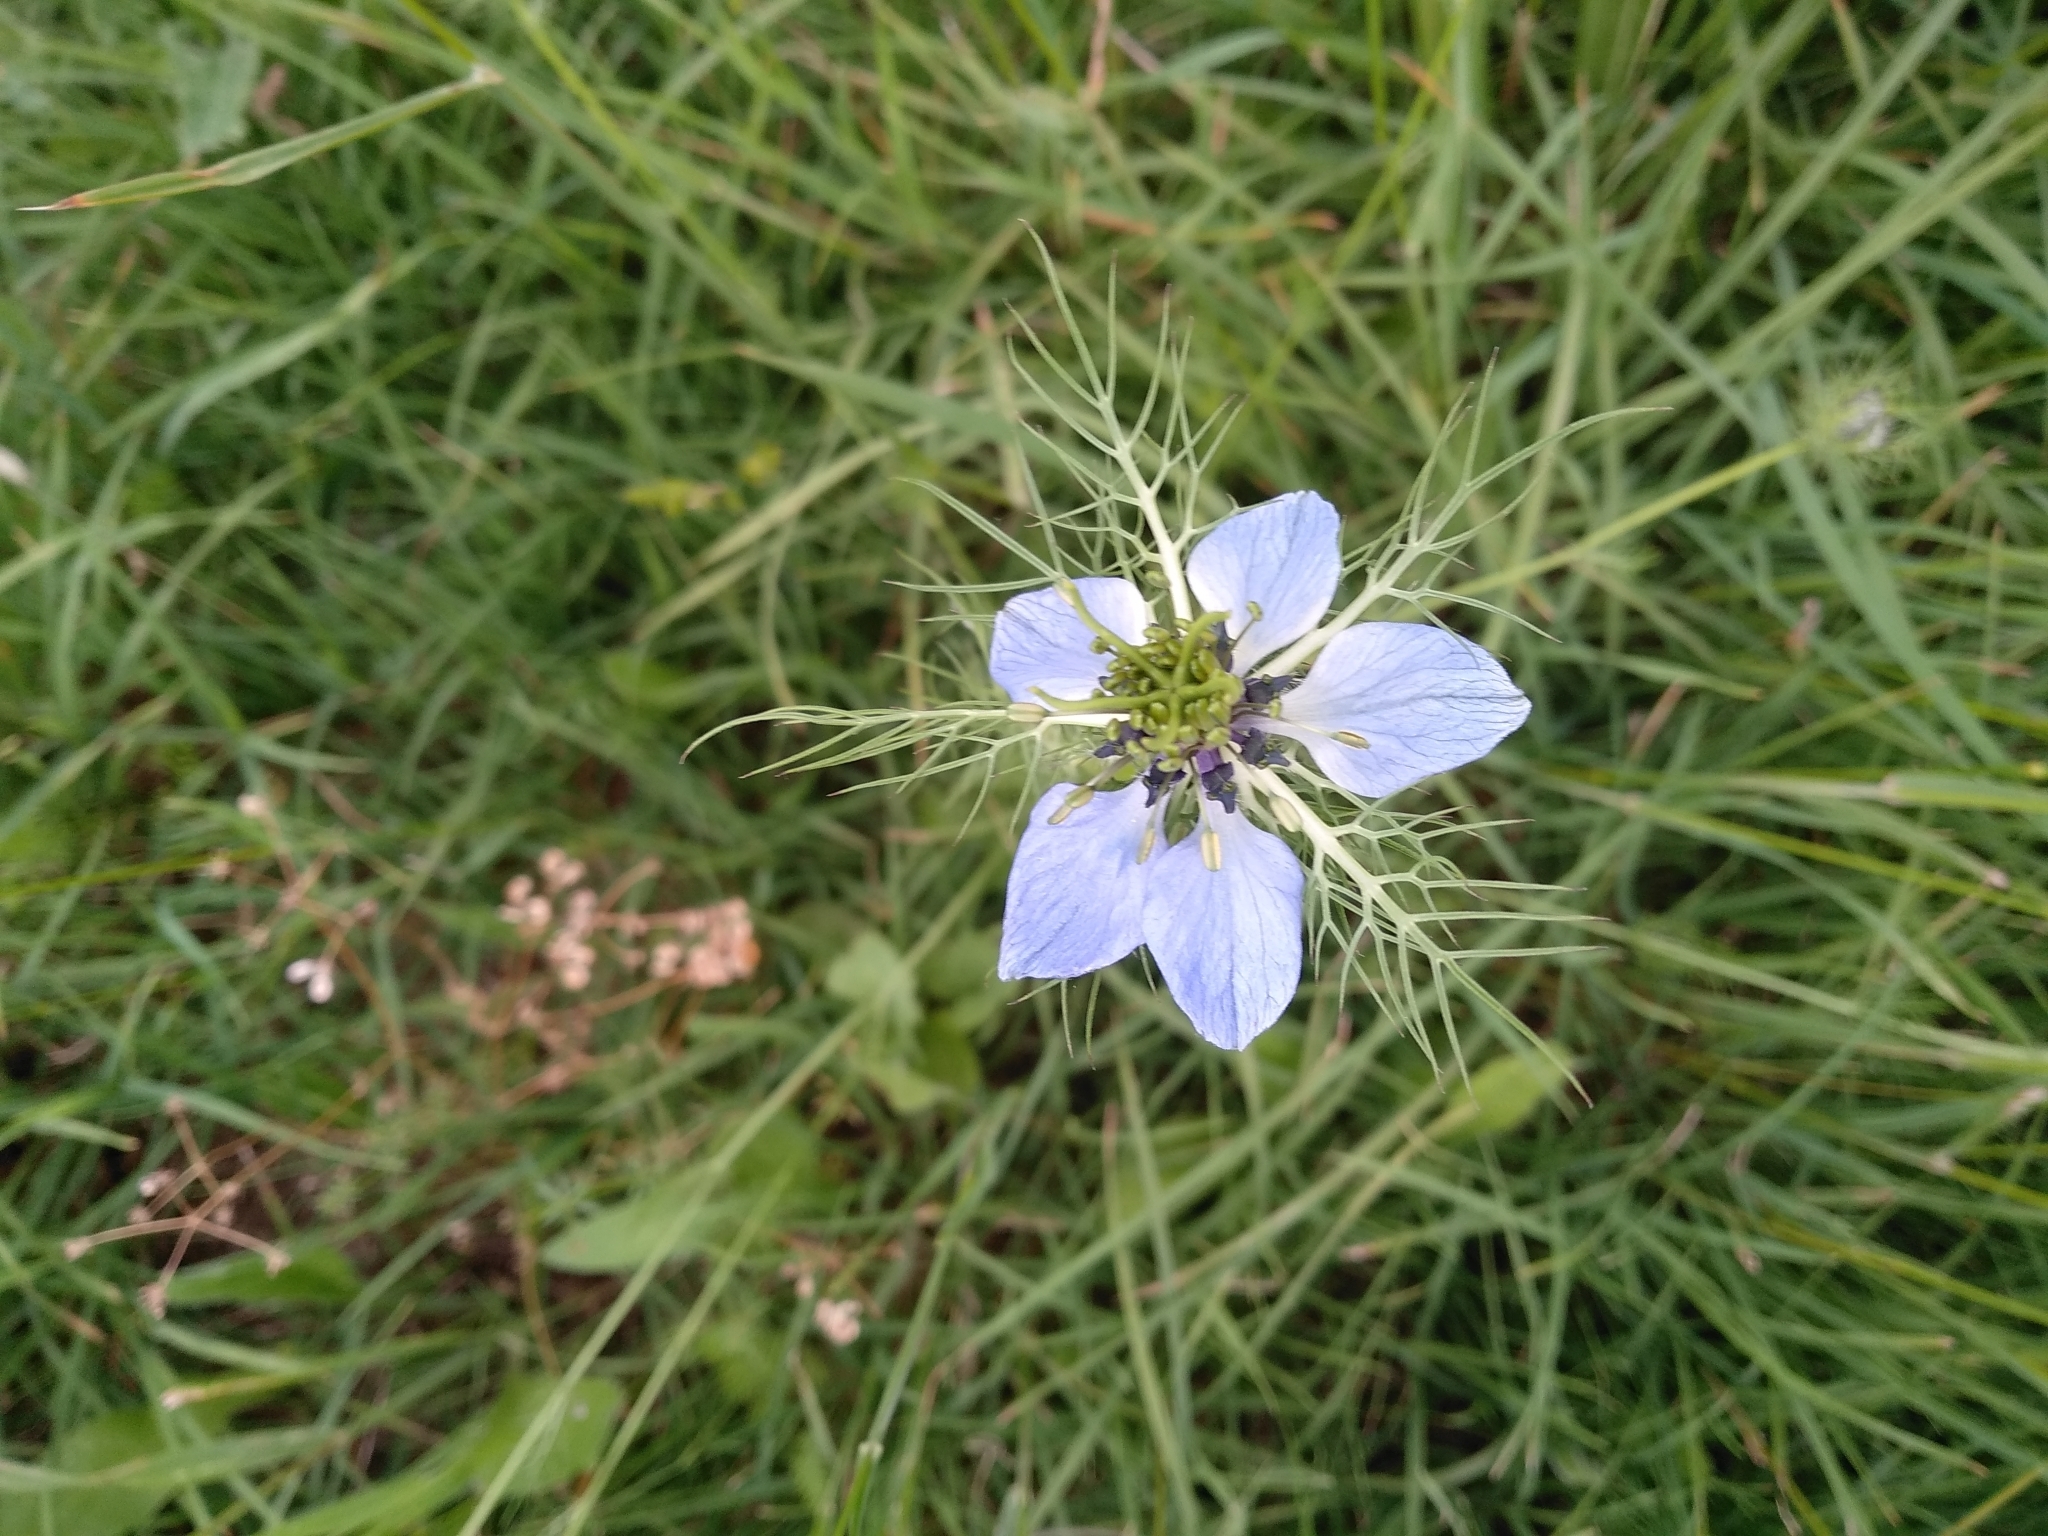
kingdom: Plantae
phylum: Tracheophyta
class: Magnoliopsida
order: Ranunculales
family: Ranunculaceae
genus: Nigella
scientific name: Nigella damascena
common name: Love-in-a-mist
